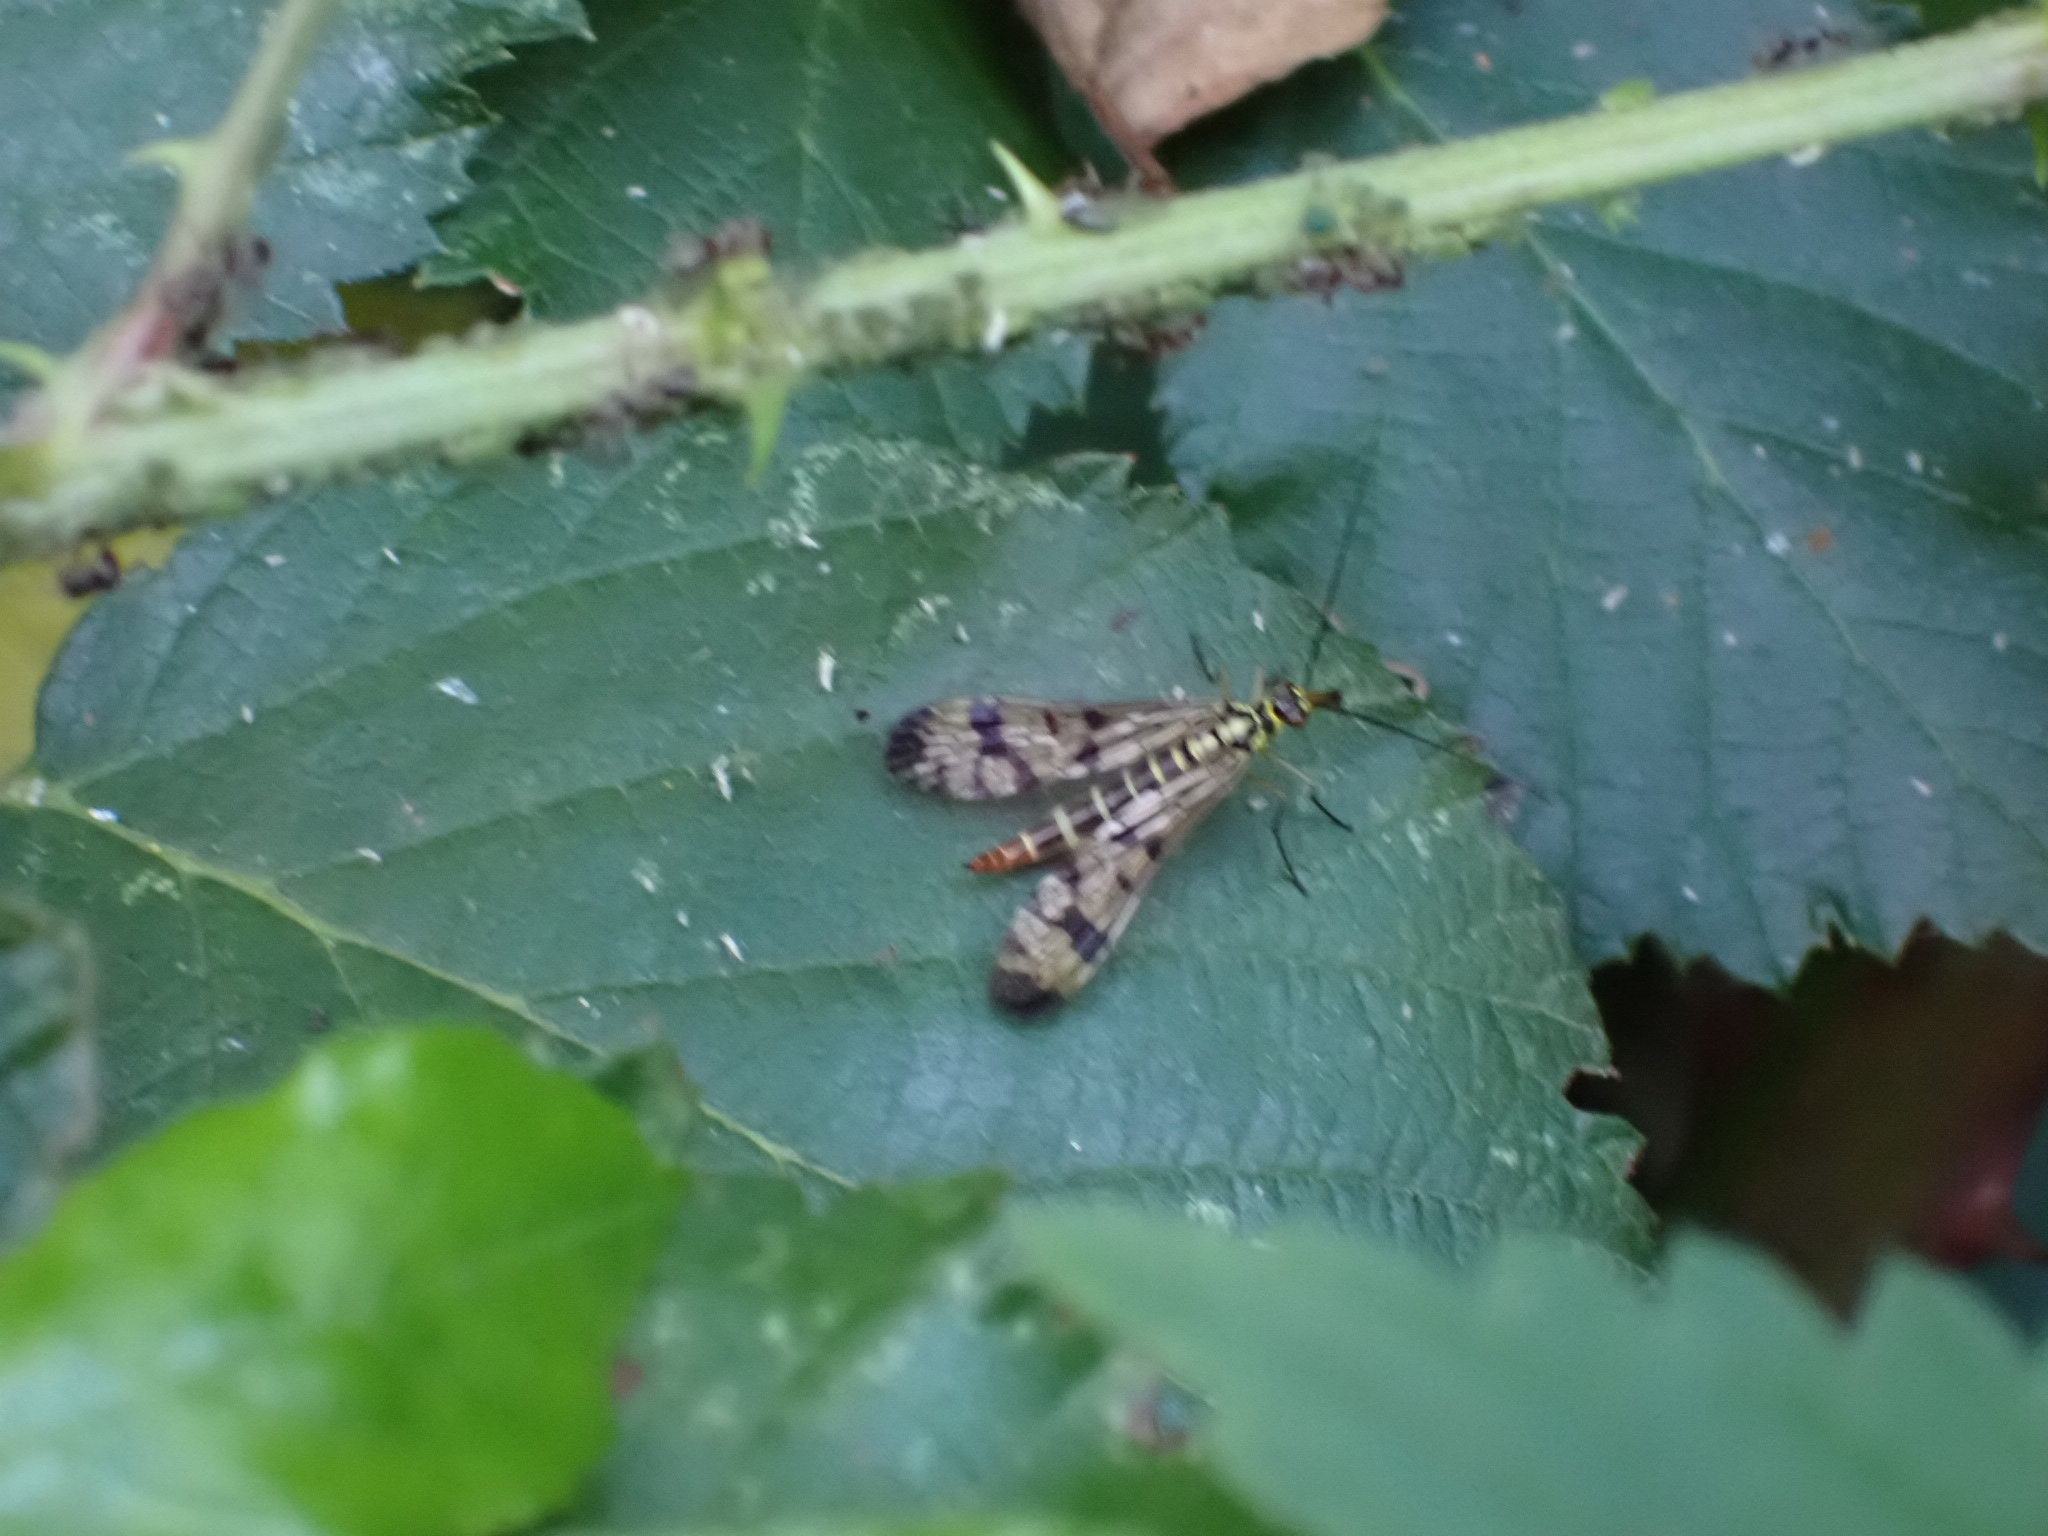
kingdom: Animalia
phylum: Arthropoda
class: Insecta
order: Mecoptera
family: Panorpidae
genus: Panorpa
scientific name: Panorpa communis
